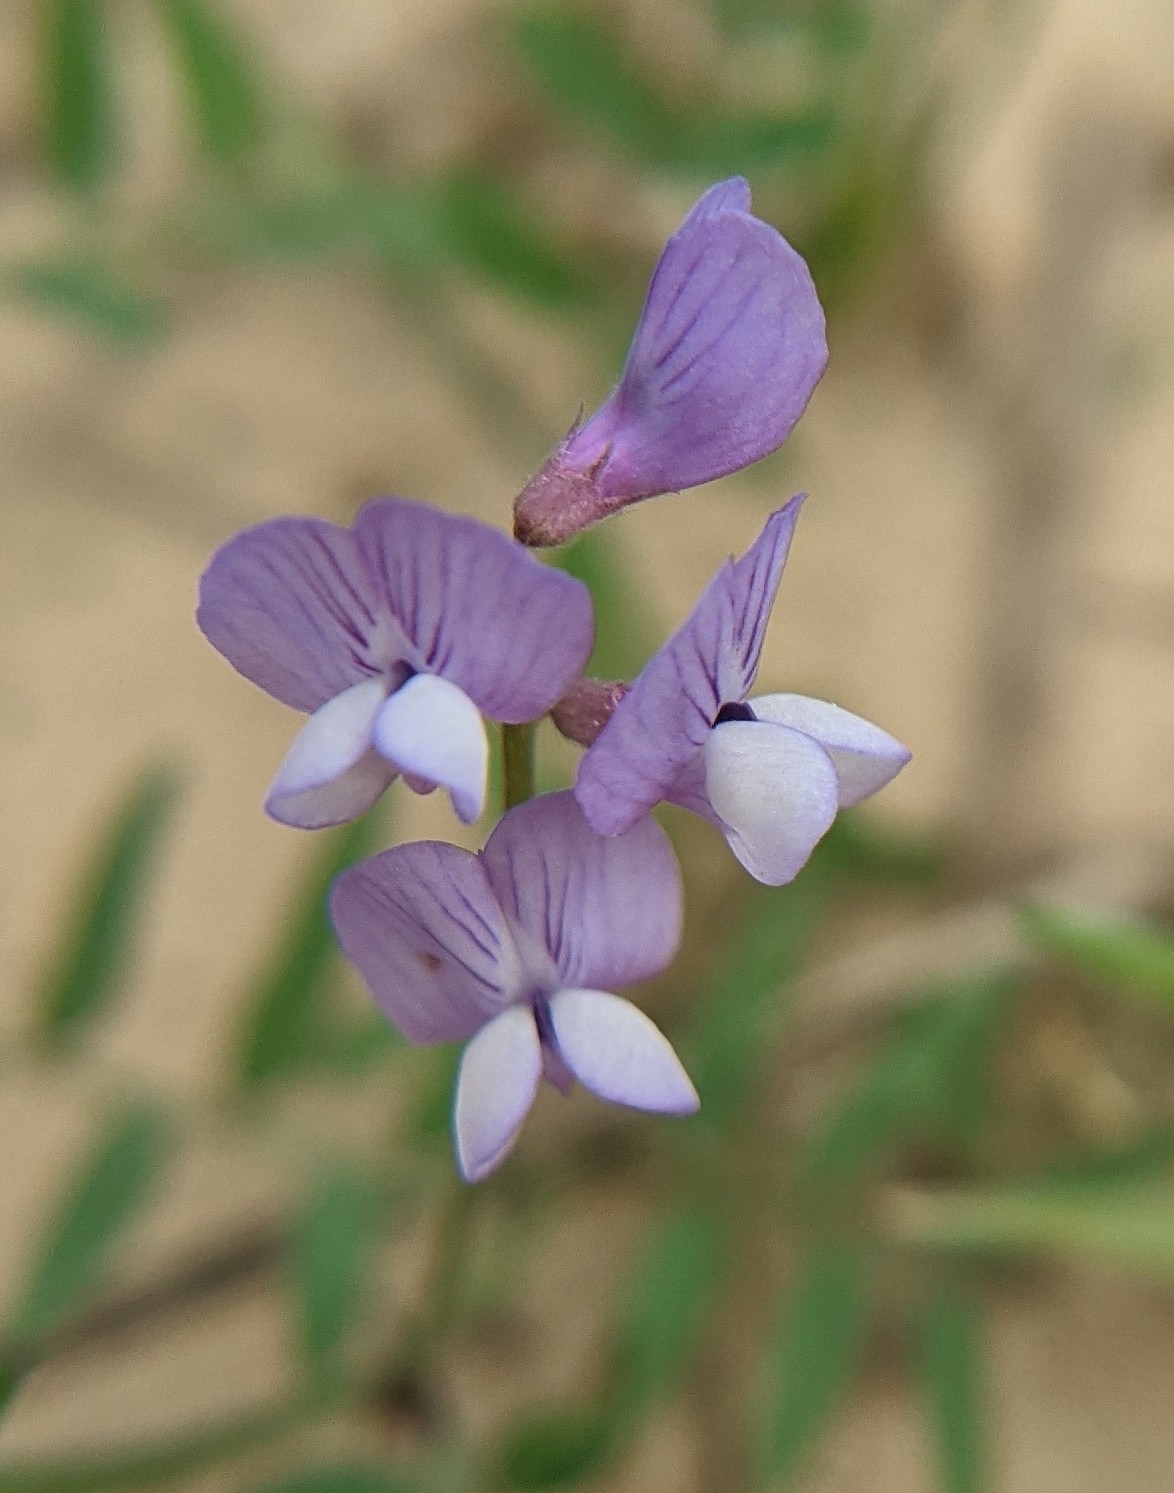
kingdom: Plantae
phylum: Tracheophyta
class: Magnoliopsida
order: Fabales
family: Fabaceae
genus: Vicia
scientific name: Vicia ludoviciana
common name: Louisiana vetch
